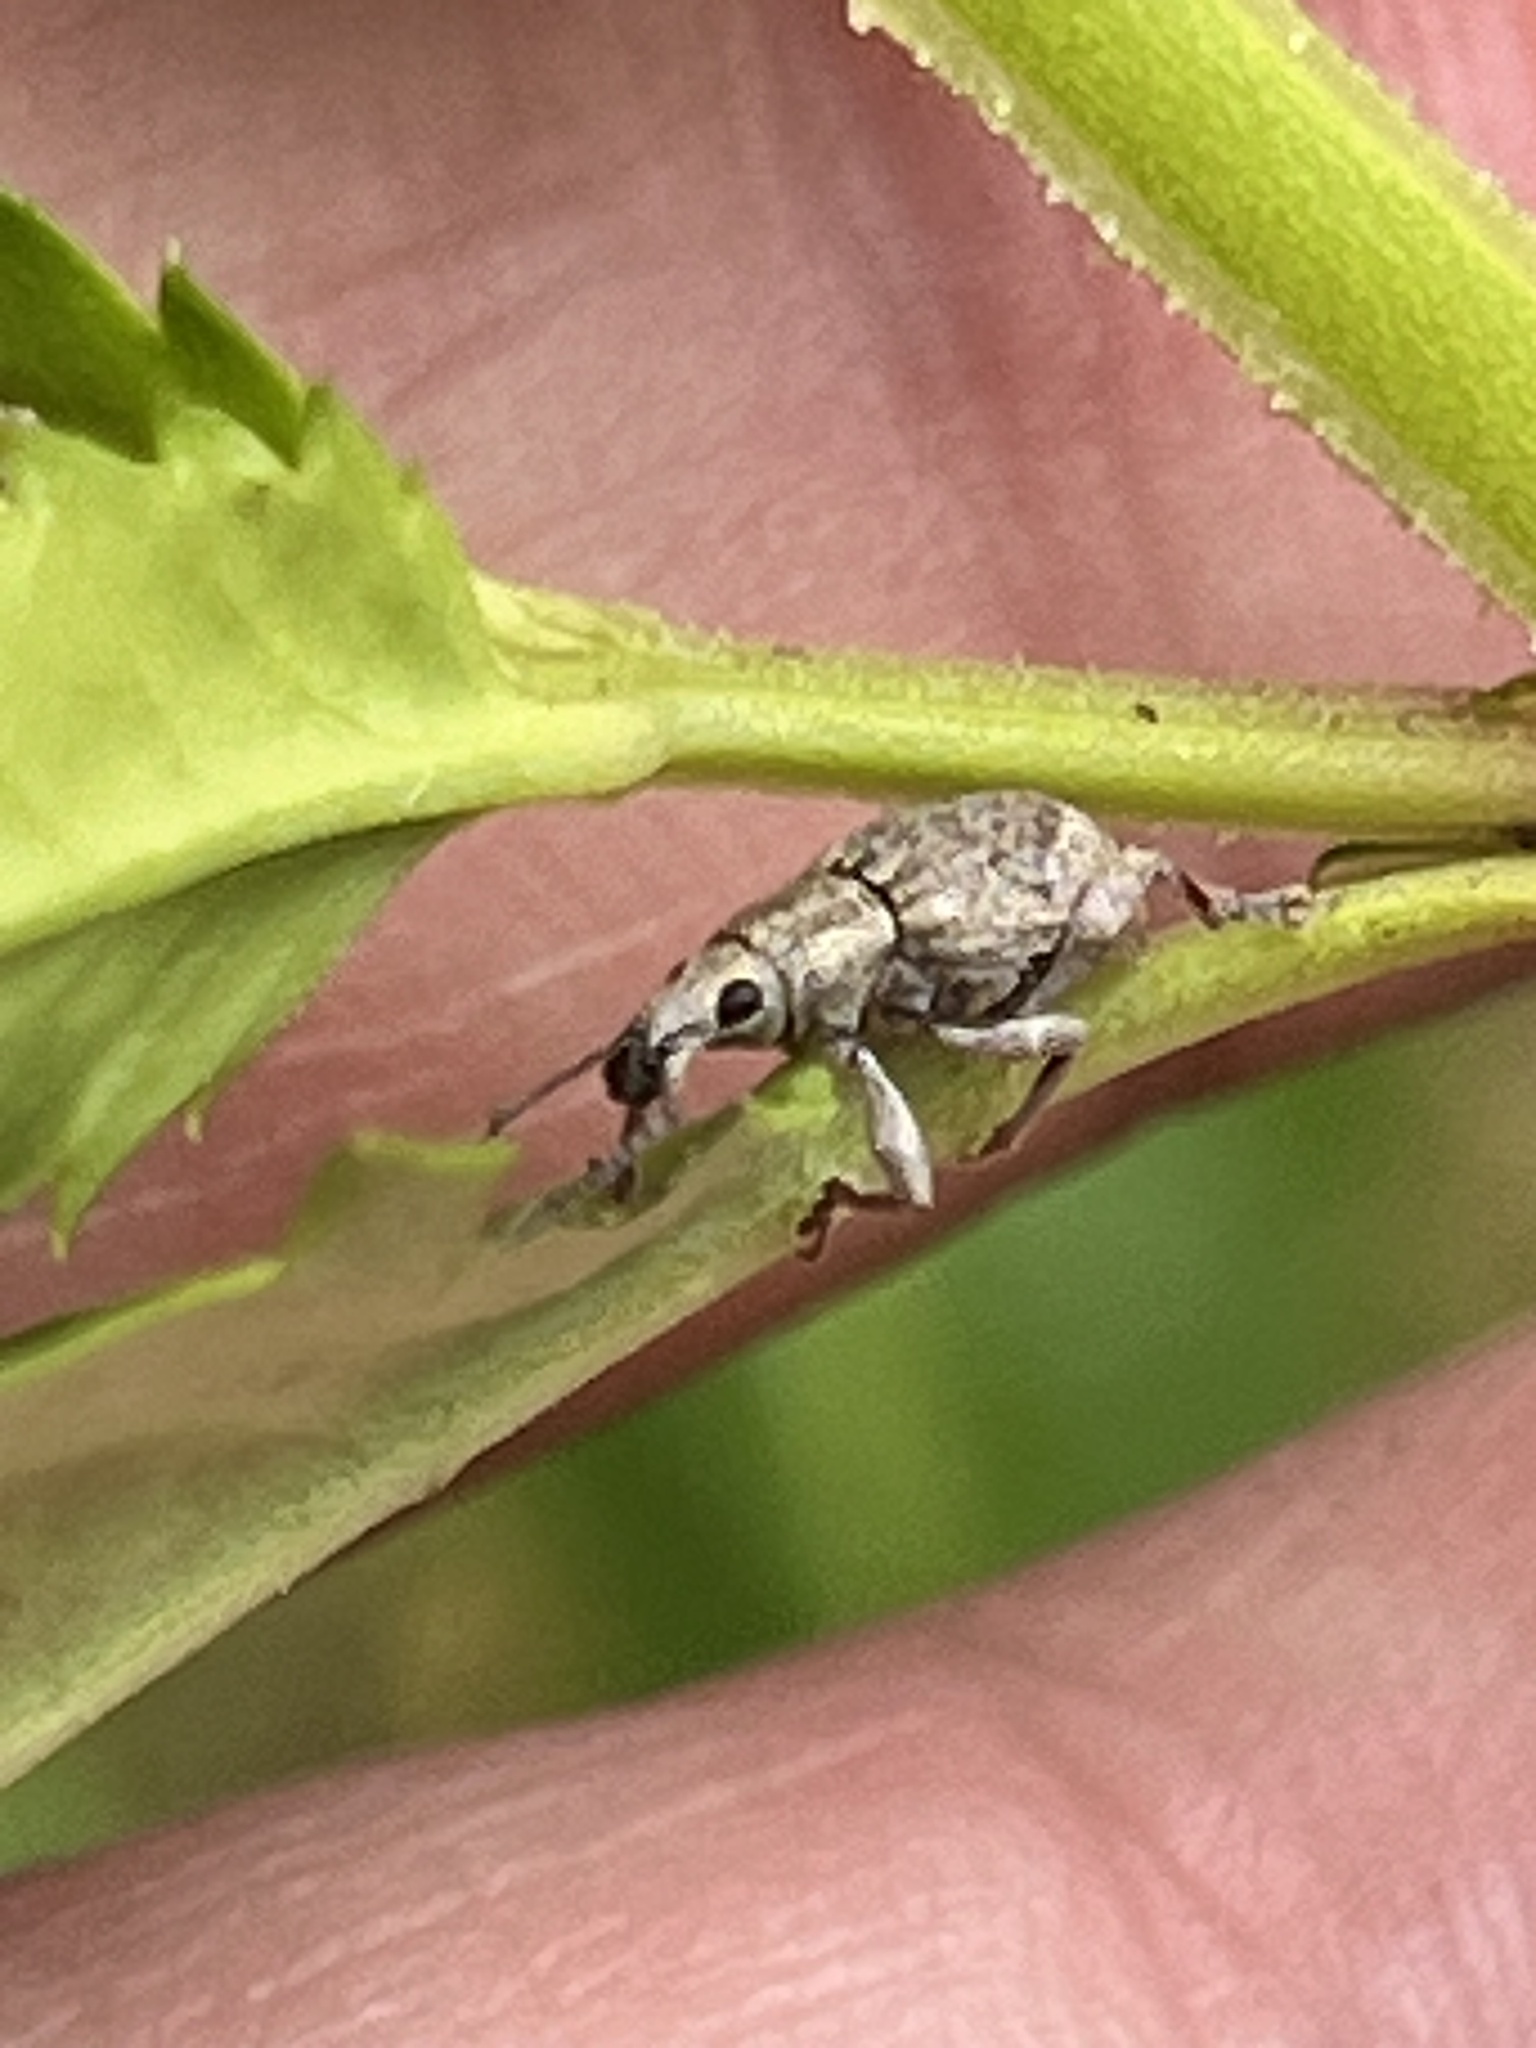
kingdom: Animalia
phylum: Arthropoda
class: Insecta
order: Coleoptera
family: Curculionidae
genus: Catoptes
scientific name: Catoptes interruptus
